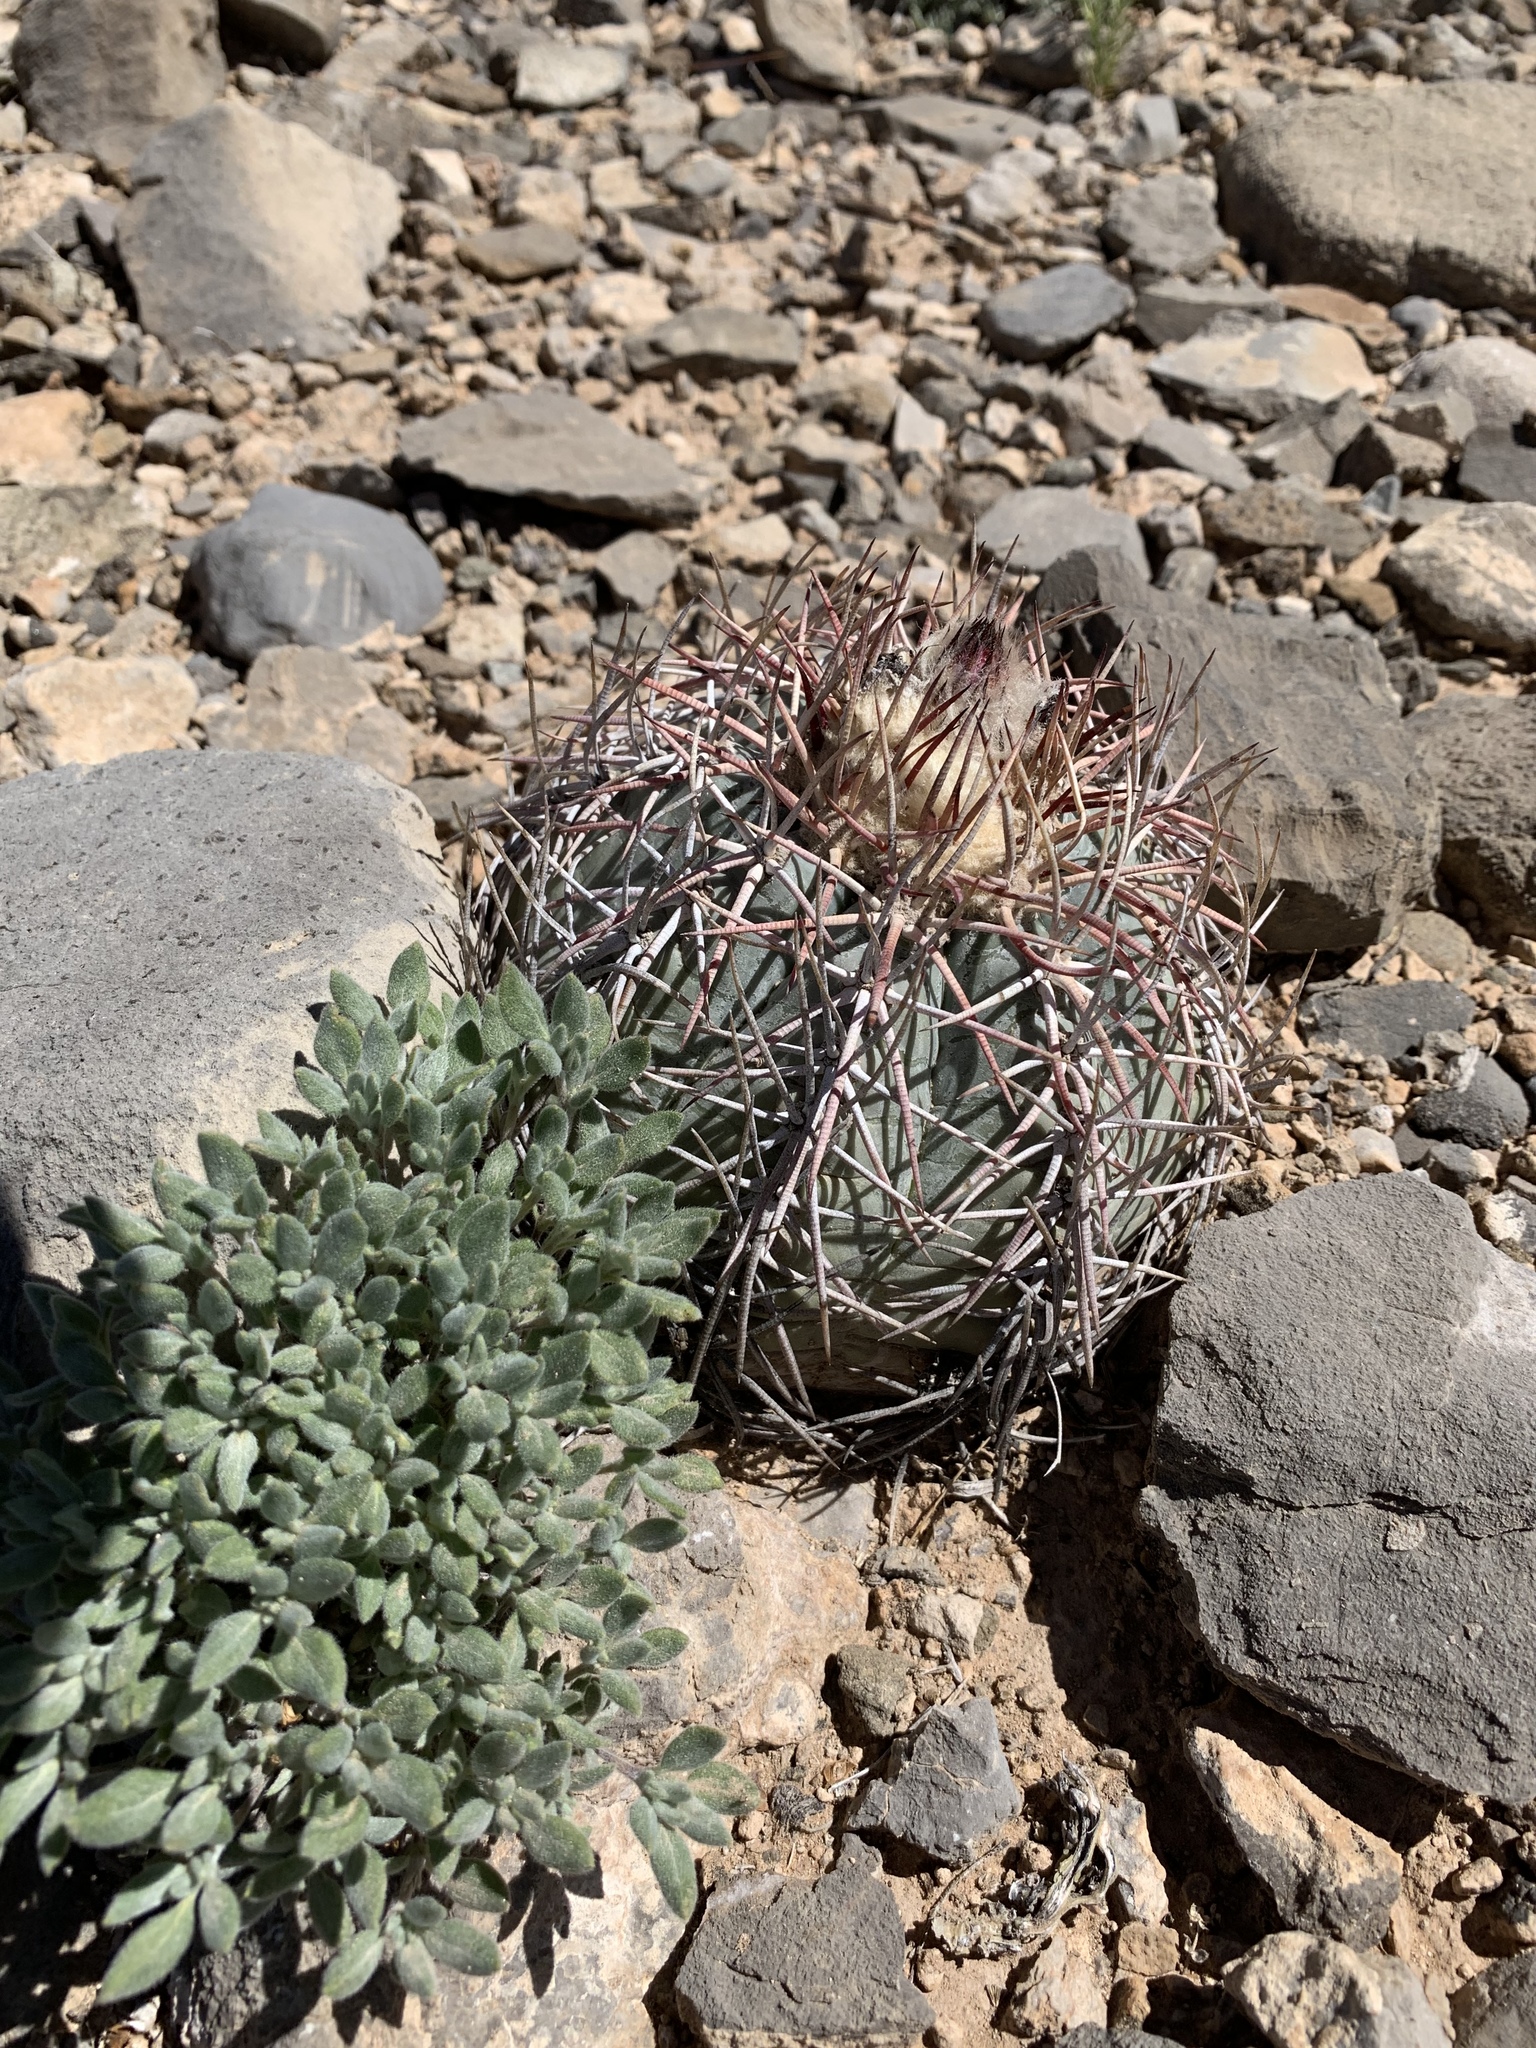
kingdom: Plantae
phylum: Tracheophyta
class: Magnoliopsida
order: Caryophyllales
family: Cactaceae
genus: Echinocactus
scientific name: Echinocactus horizonthalonius
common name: Devilshead
